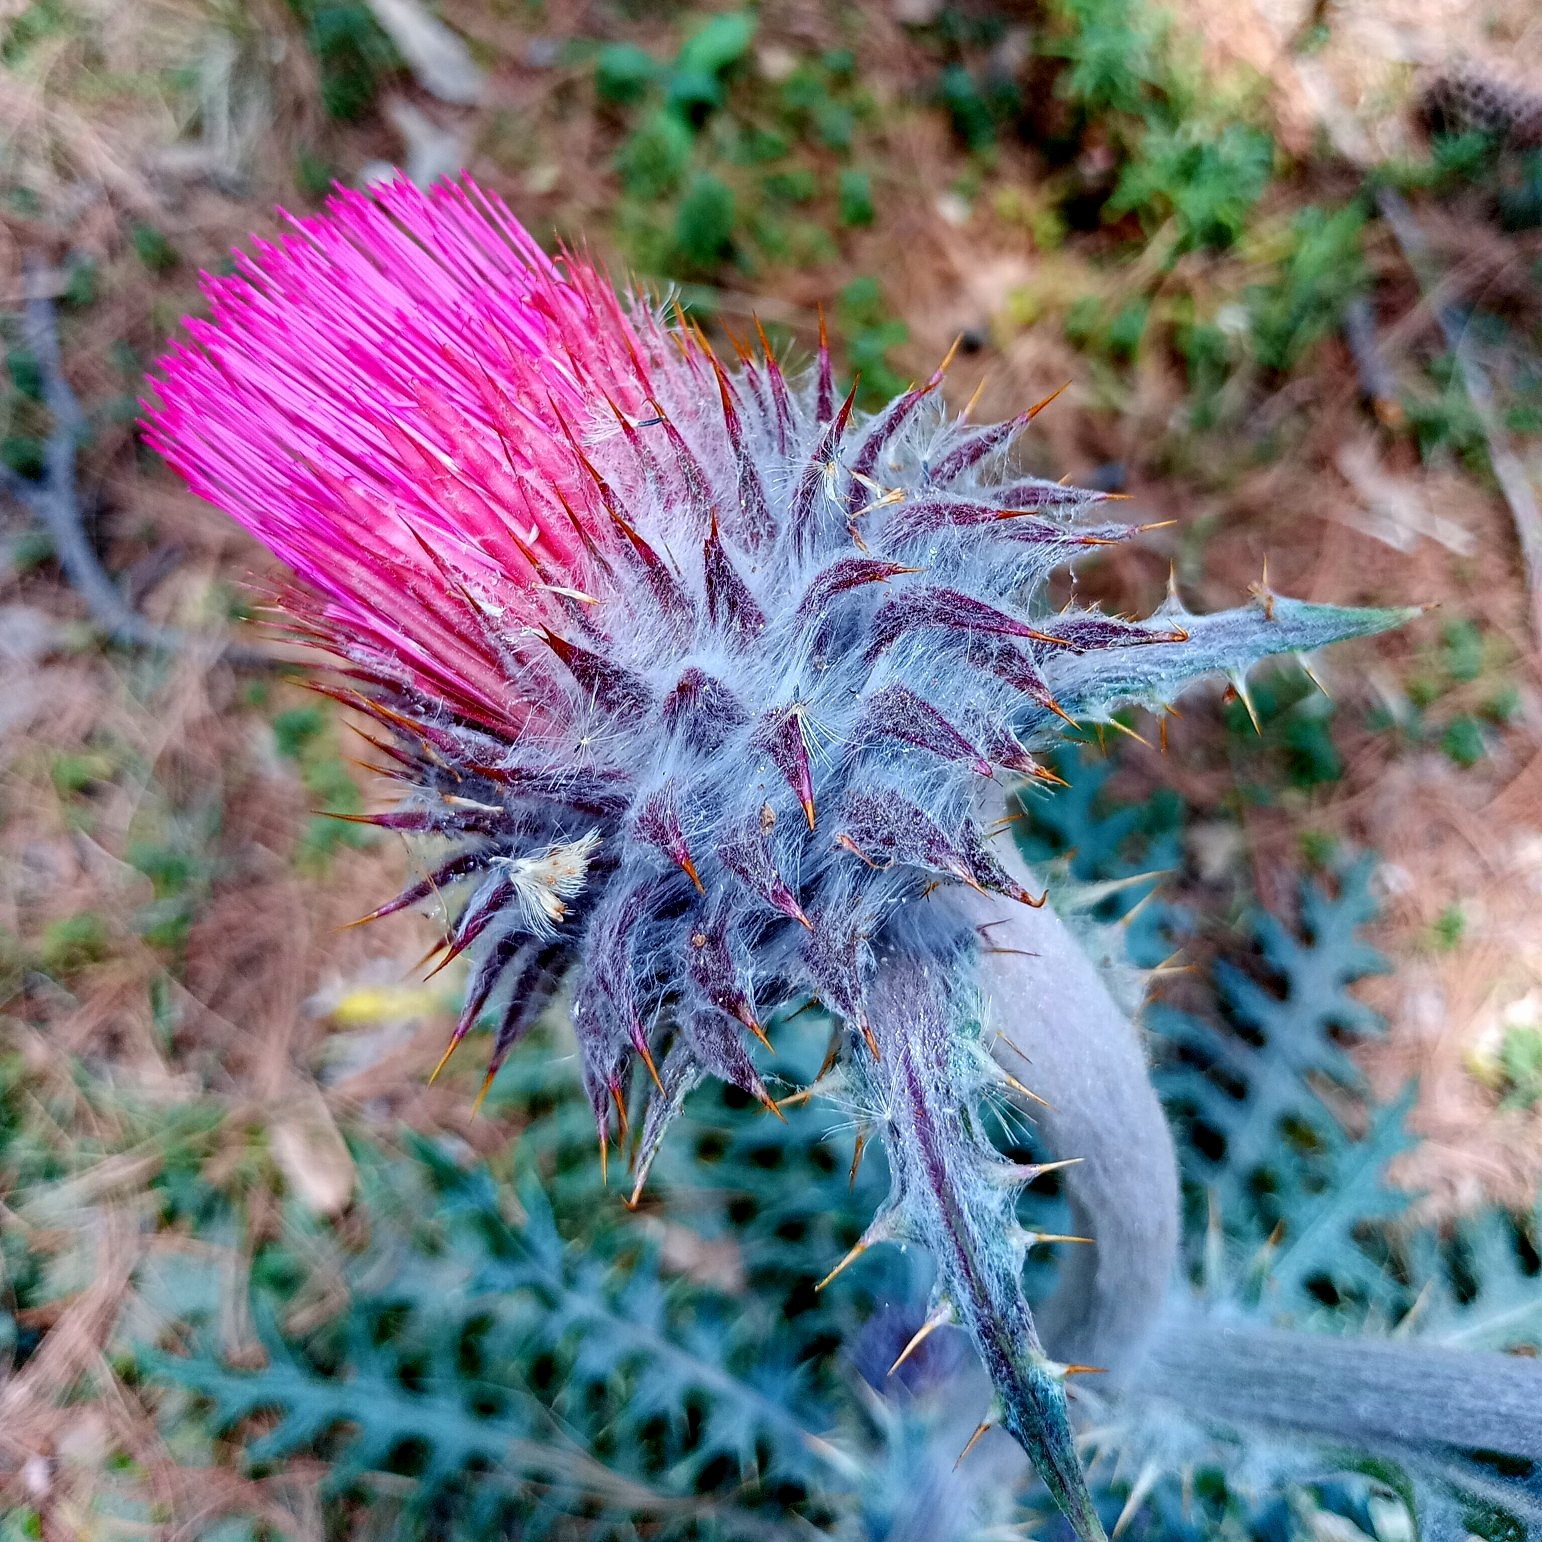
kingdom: Plantae
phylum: Tracheophyta
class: Magnoliopsida
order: Asterales
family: Asteraceae
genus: Cirsium
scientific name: Cirsium ehrenbergii
